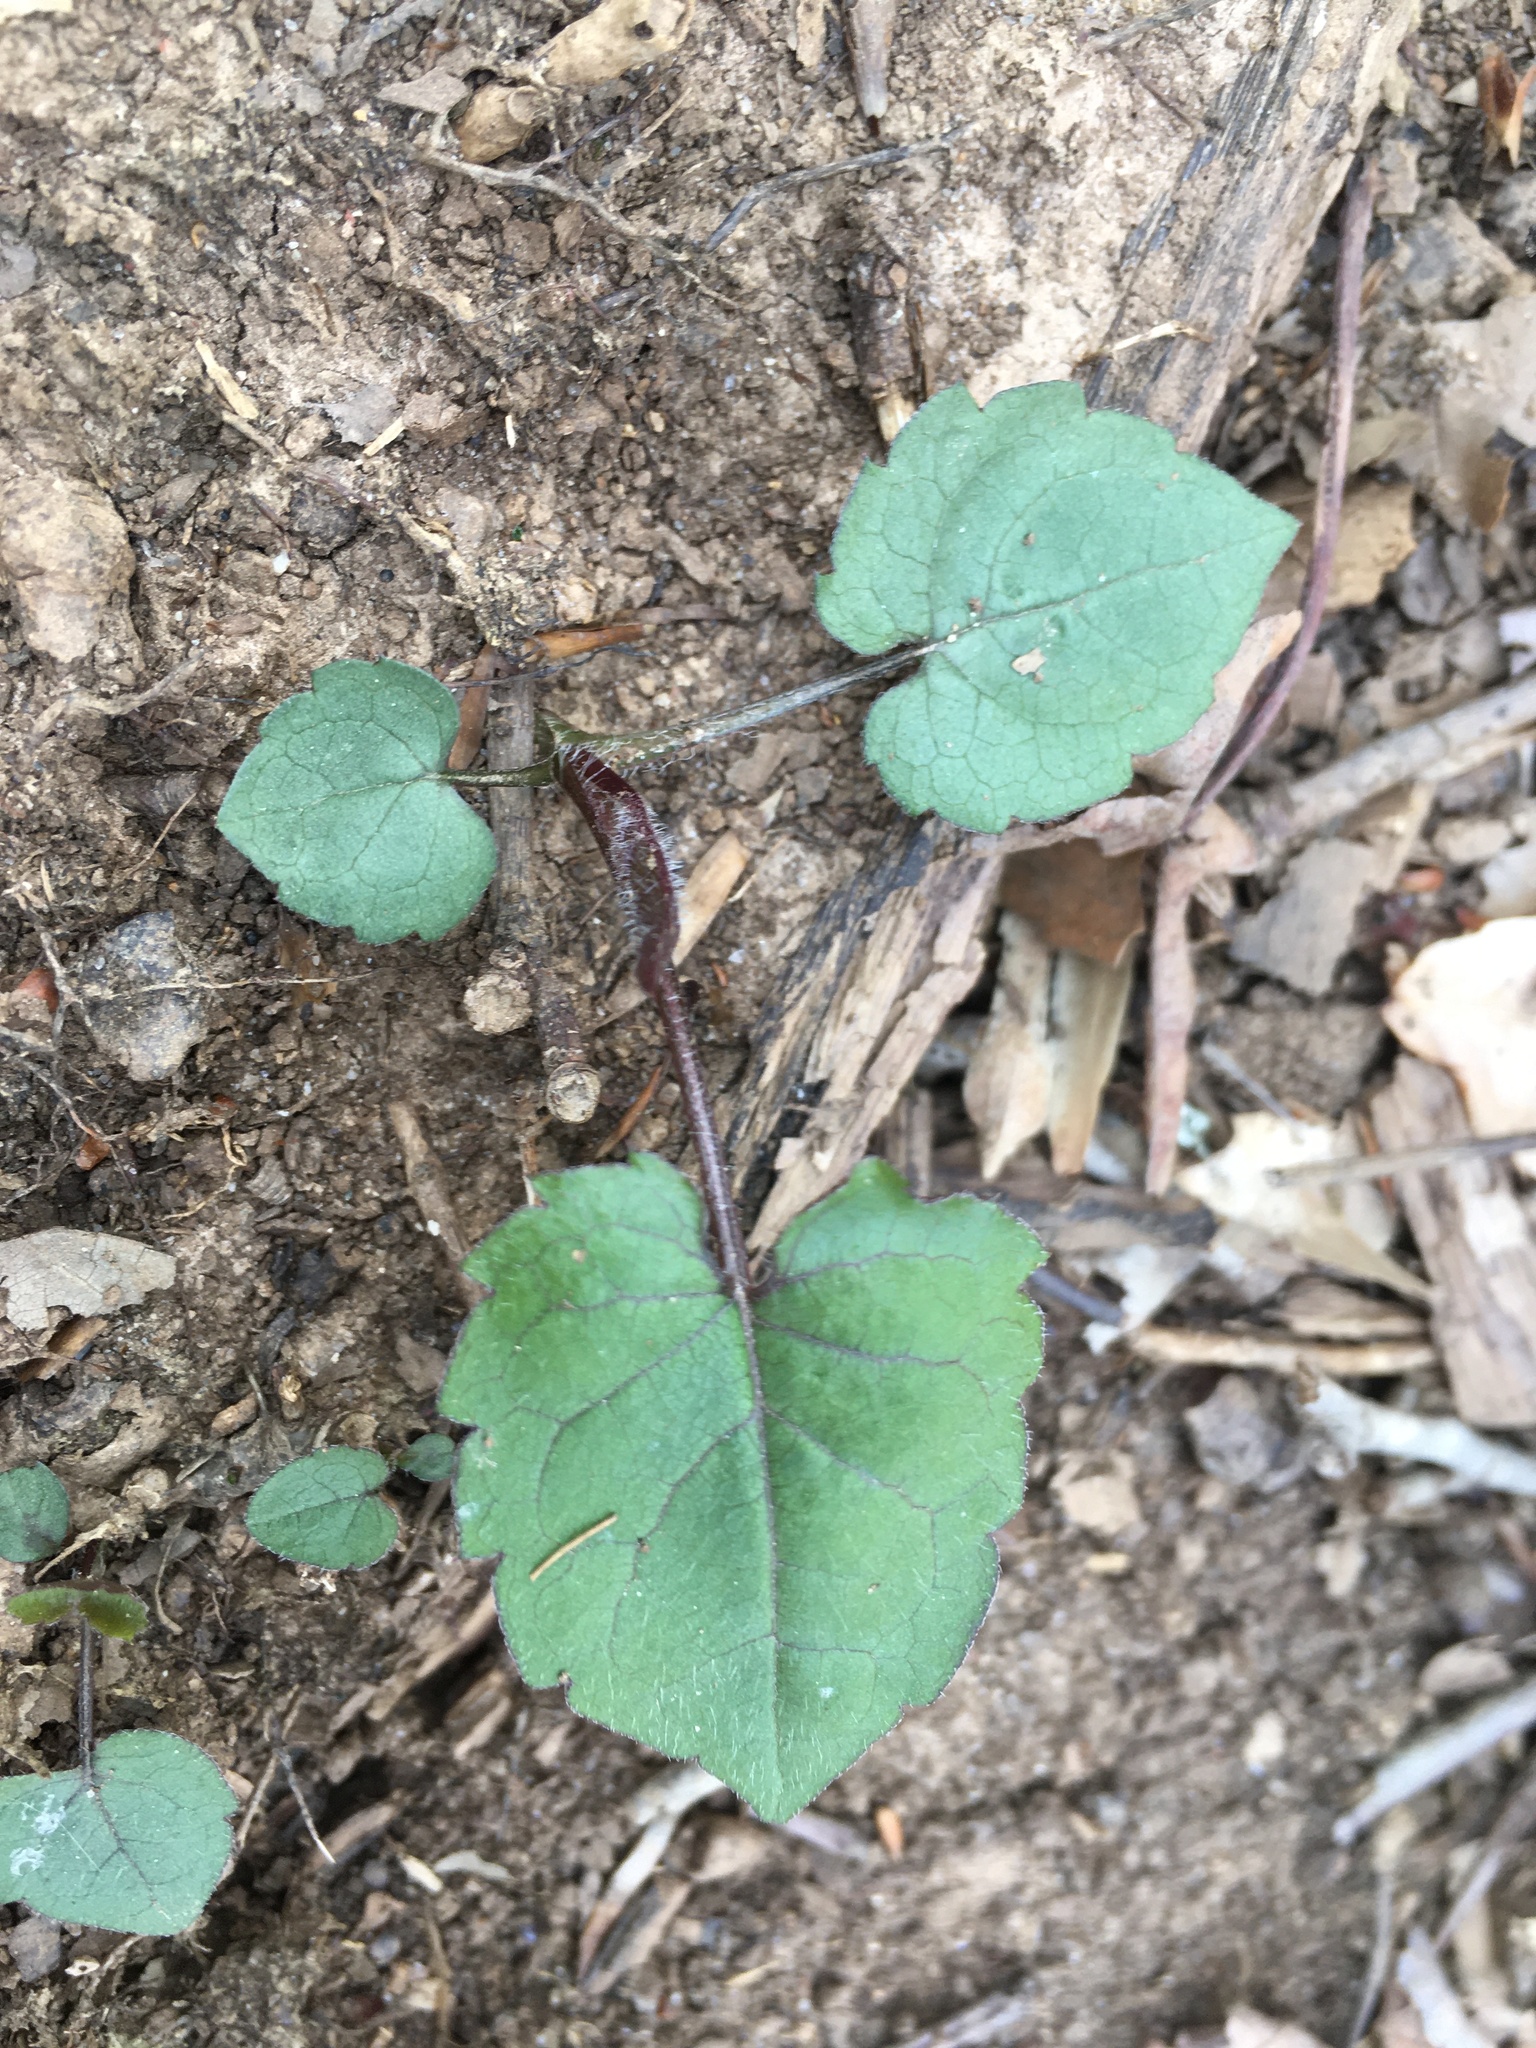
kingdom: Plantae
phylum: Tracheophyta
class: Magnoliopsida
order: Asterales
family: Asteraceae
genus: Eurybia
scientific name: Eurybia divaricata
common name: White wood aster
